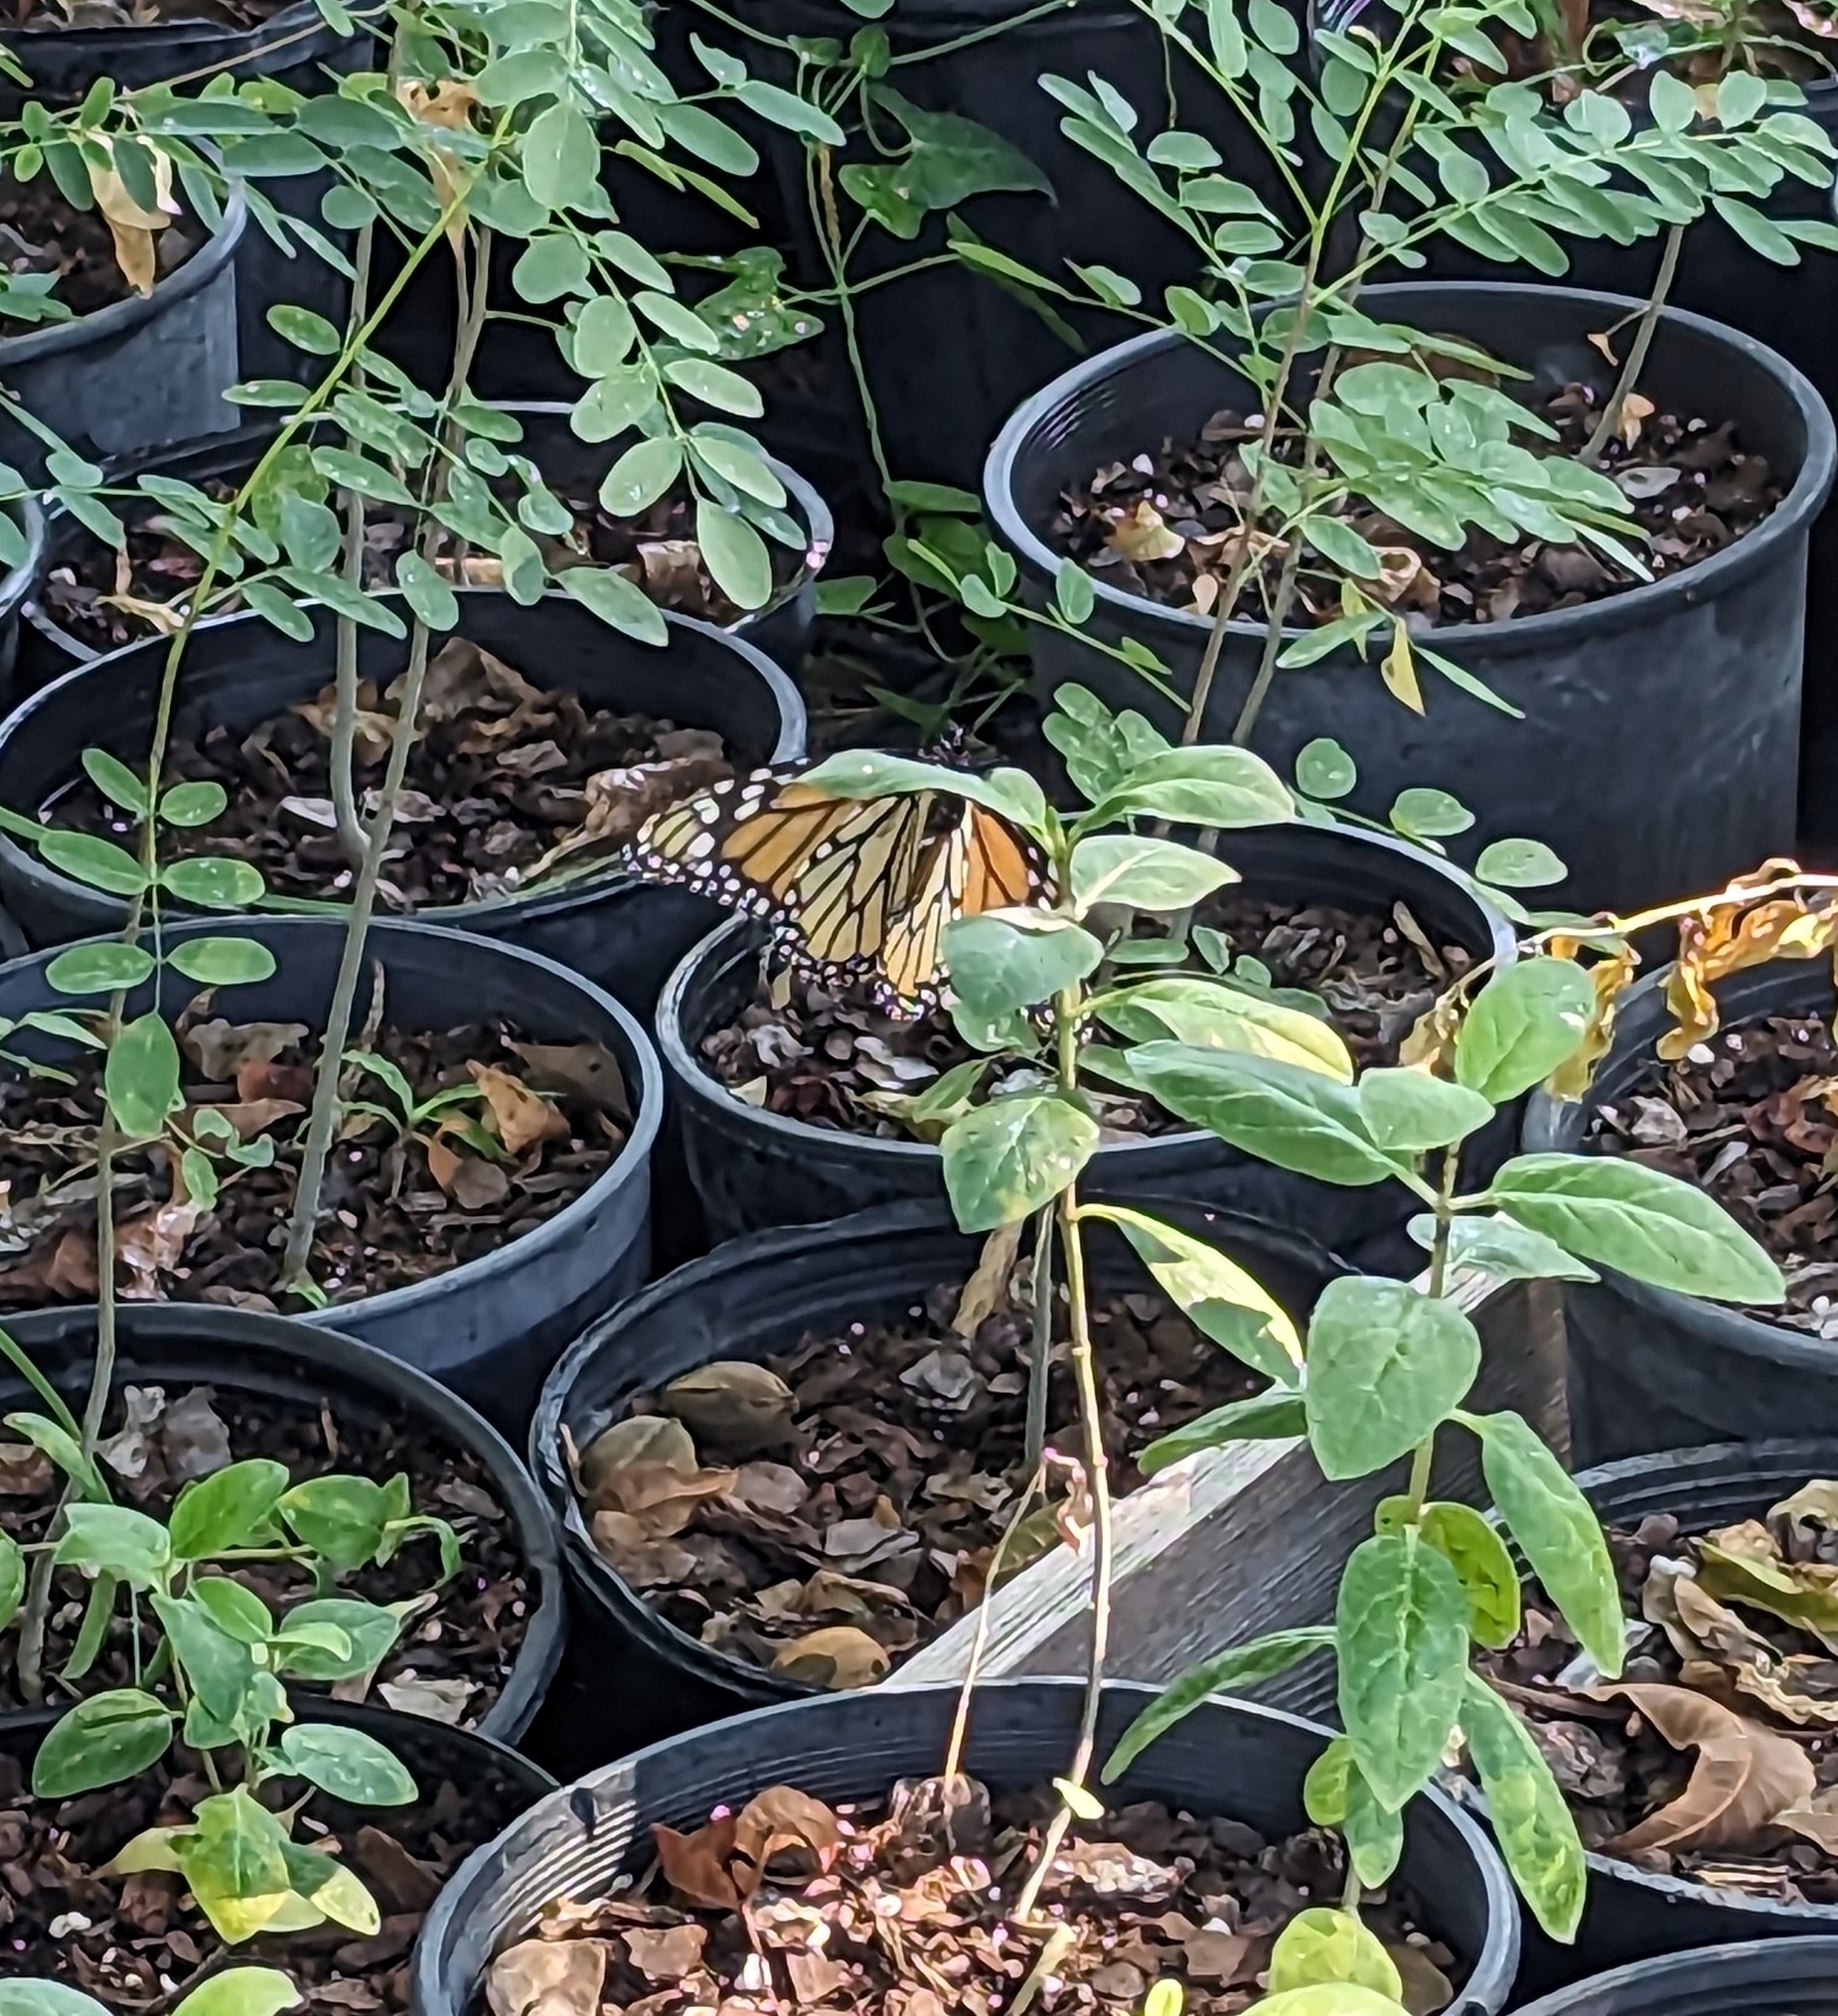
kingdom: Animalia
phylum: Arthropoda
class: Insecta
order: Lepidoptera
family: Nymphalidae
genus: Danaus
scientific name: Danaus plexippus
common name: Monarch
